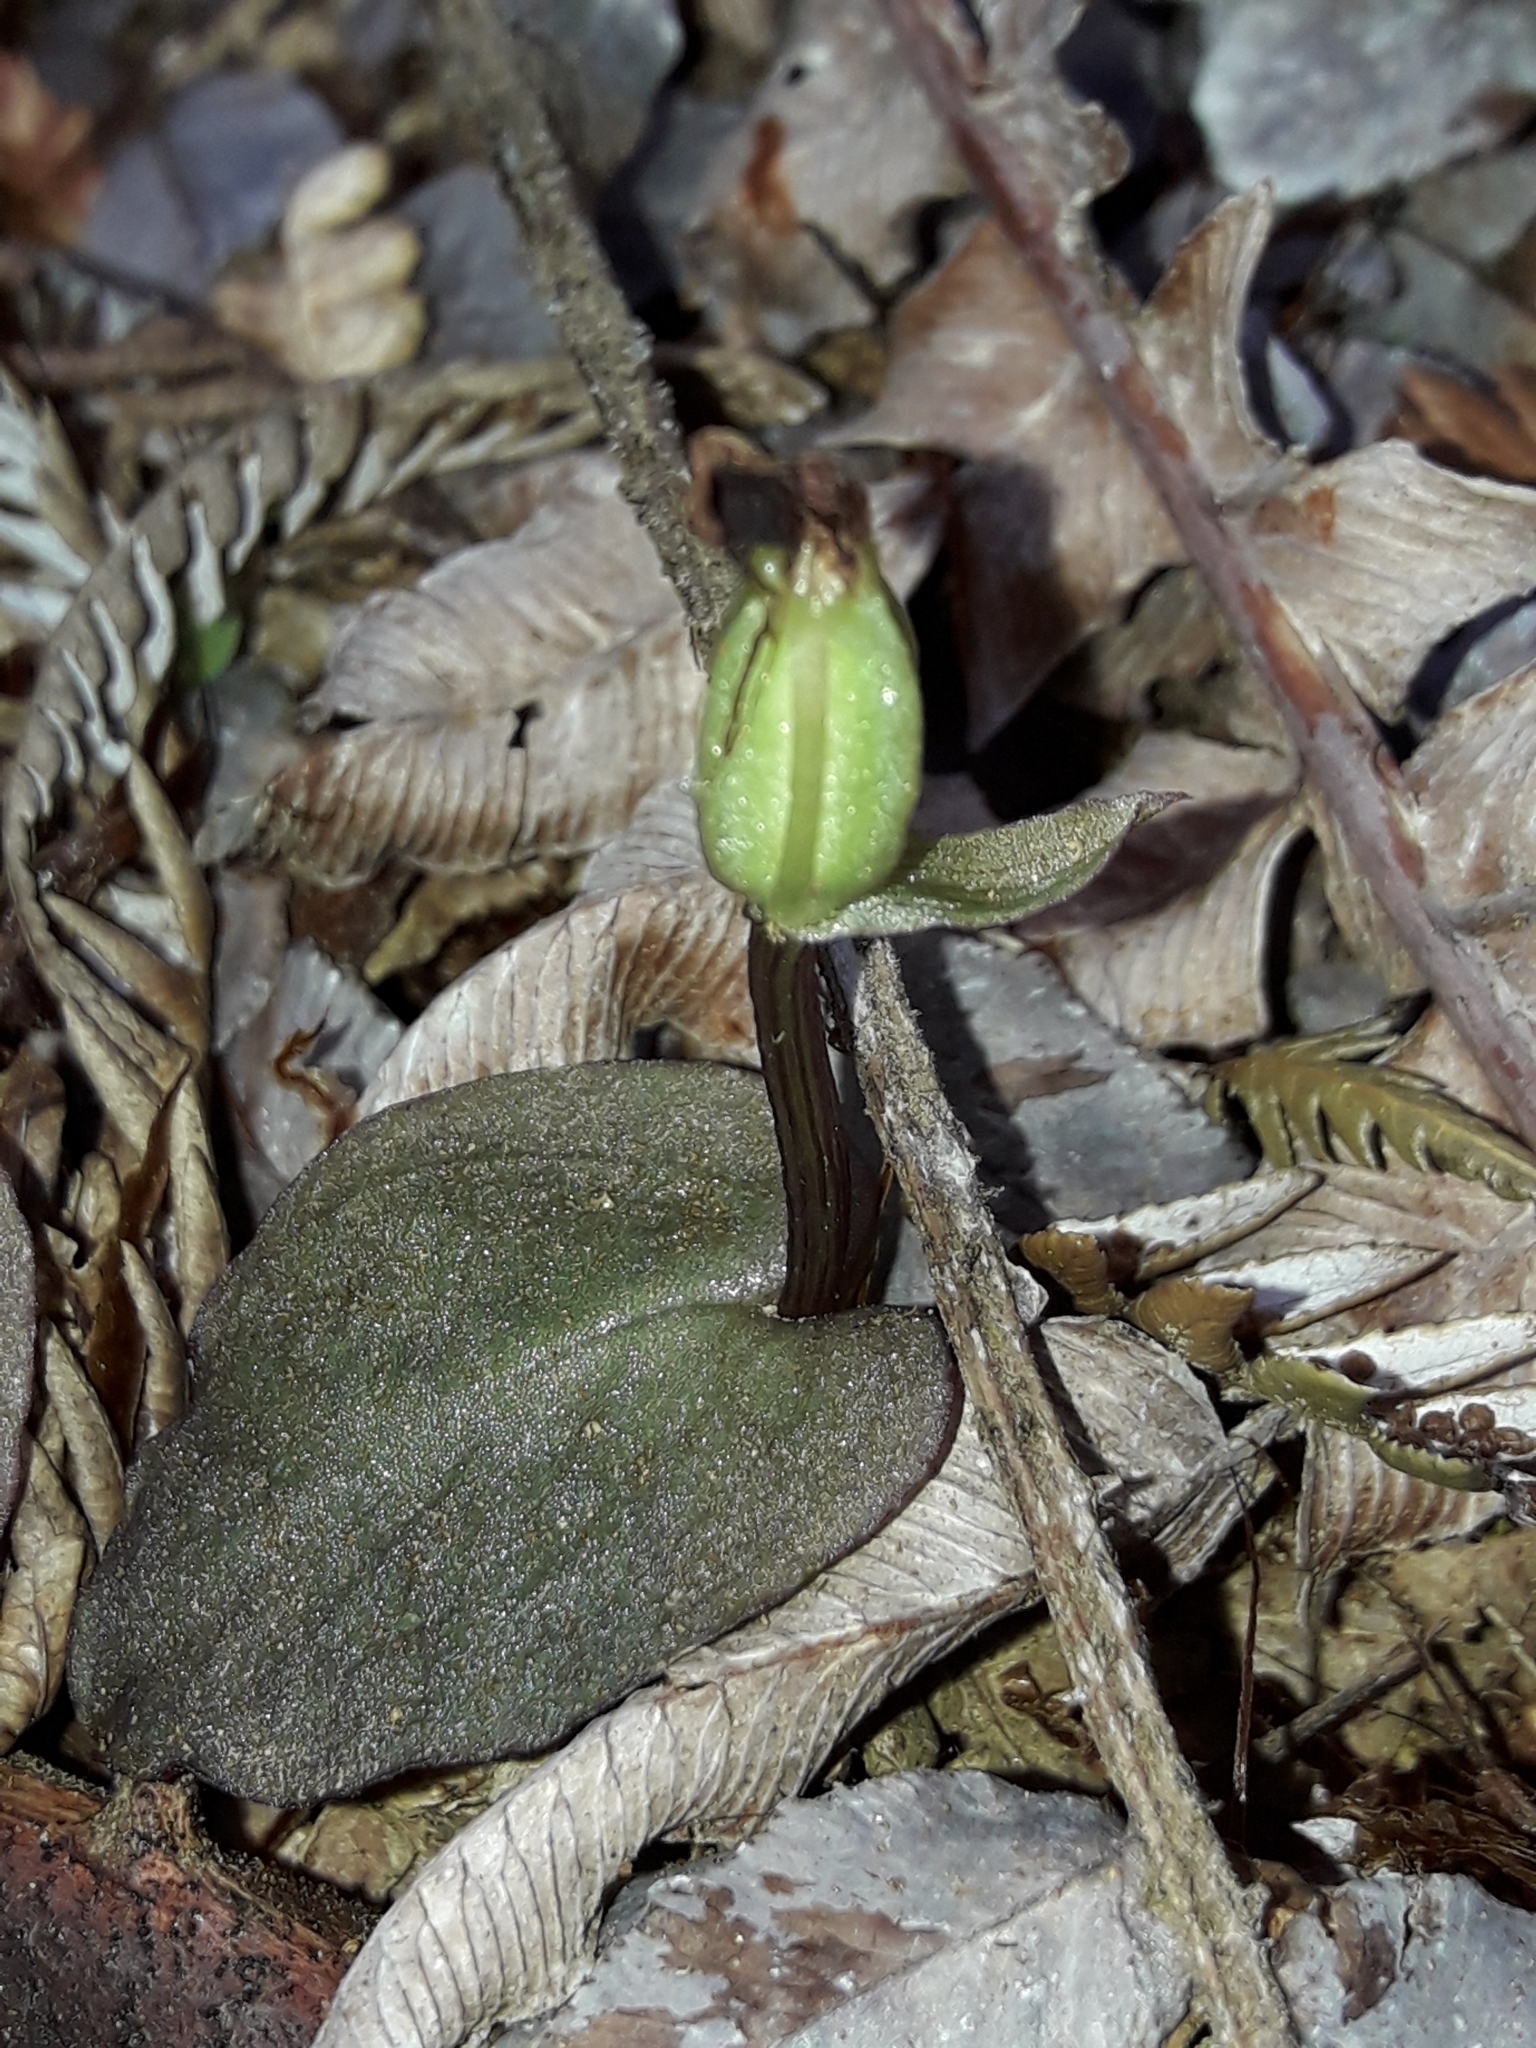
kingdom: Plantae
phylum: Tracheophyta
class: Liliopsida
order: Asparagales
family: Orchidaceae
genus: Corybas
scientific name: Corybas oblongus
